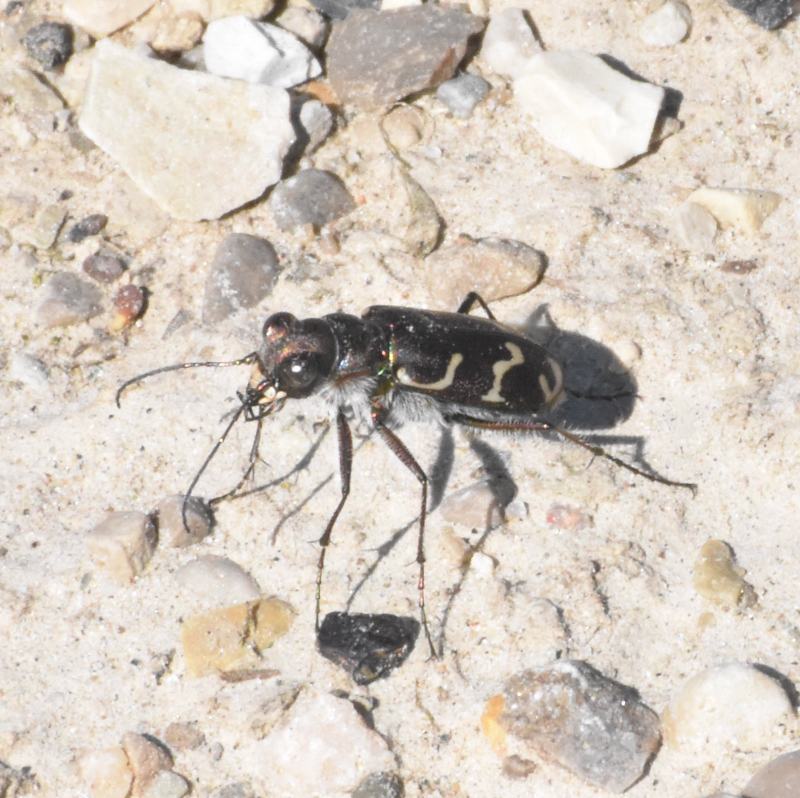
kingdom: Animalia
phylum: Arthropoda
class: Insecta
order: Coleoptera
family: Carabidae
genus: Cicindela
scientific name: Cicindela tranquebarica
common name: Oblique-lined tiger beetle
